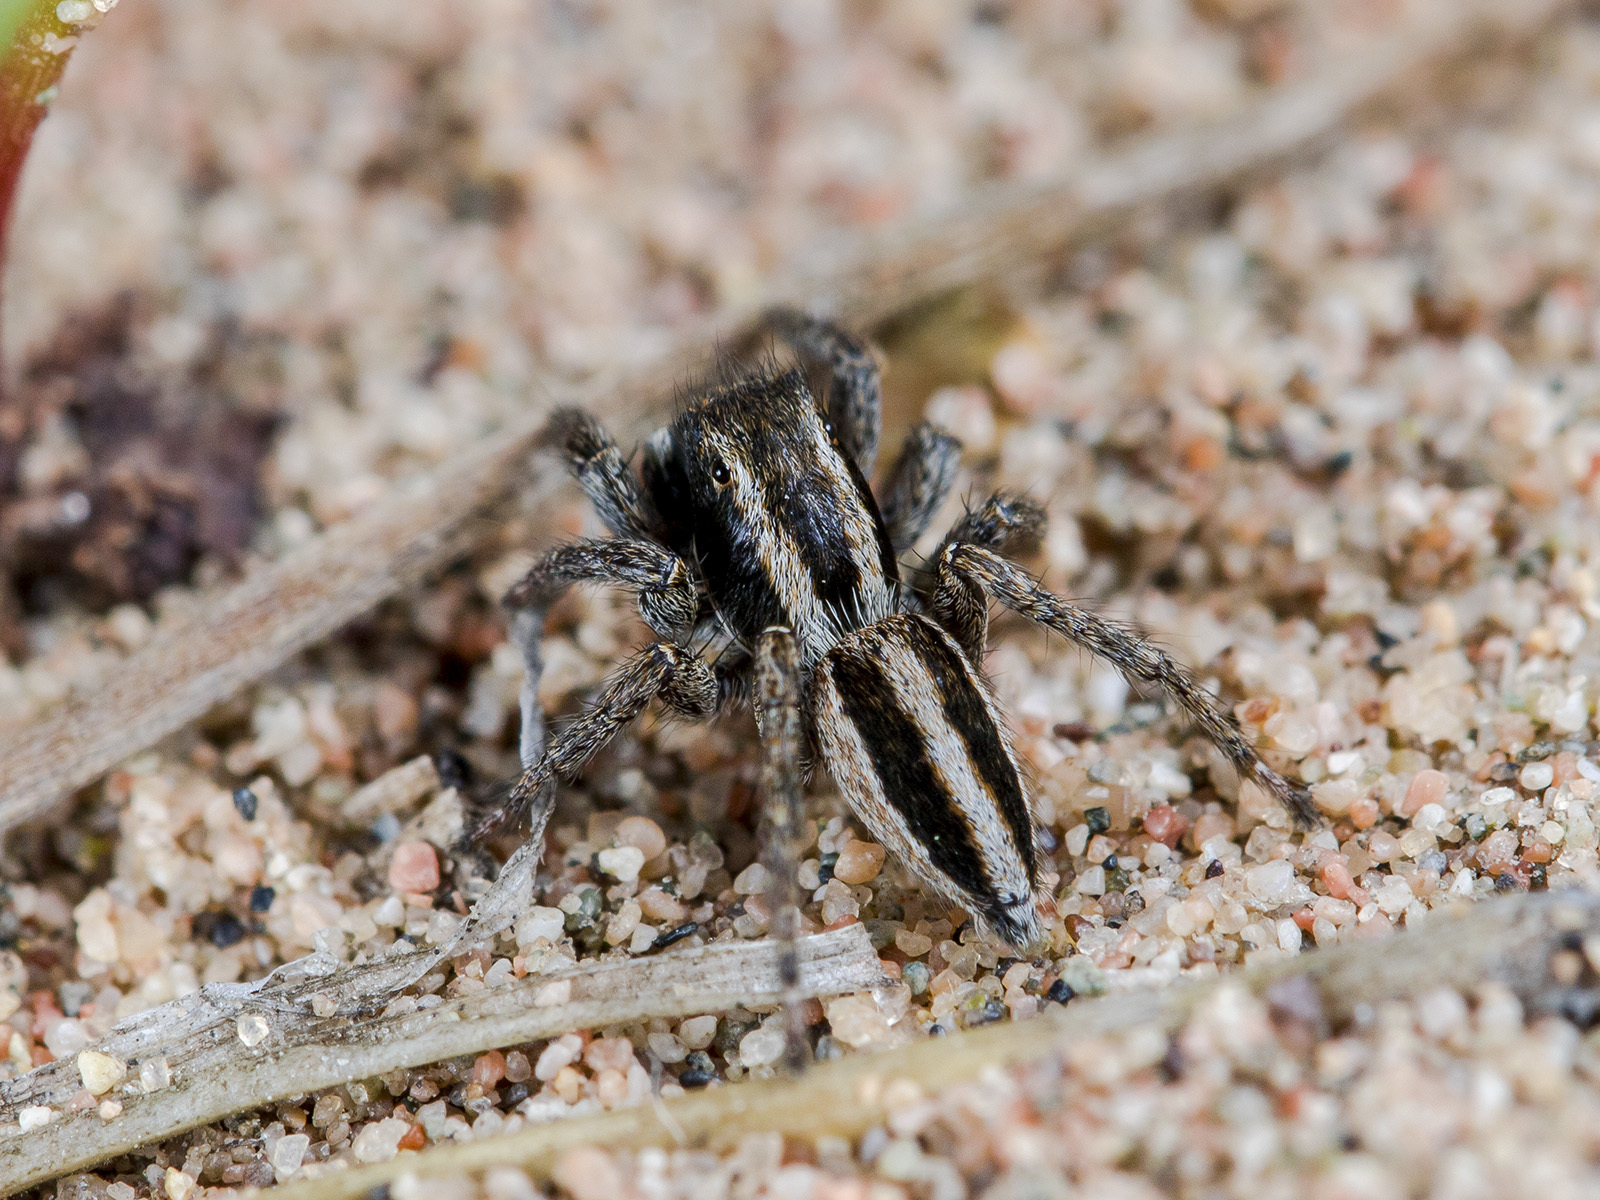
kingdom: Animalia
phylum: Arthropoda
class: Arachnida
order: Araneae
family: Salticidae
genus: Phlegra
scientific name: Phlegra andreevae
